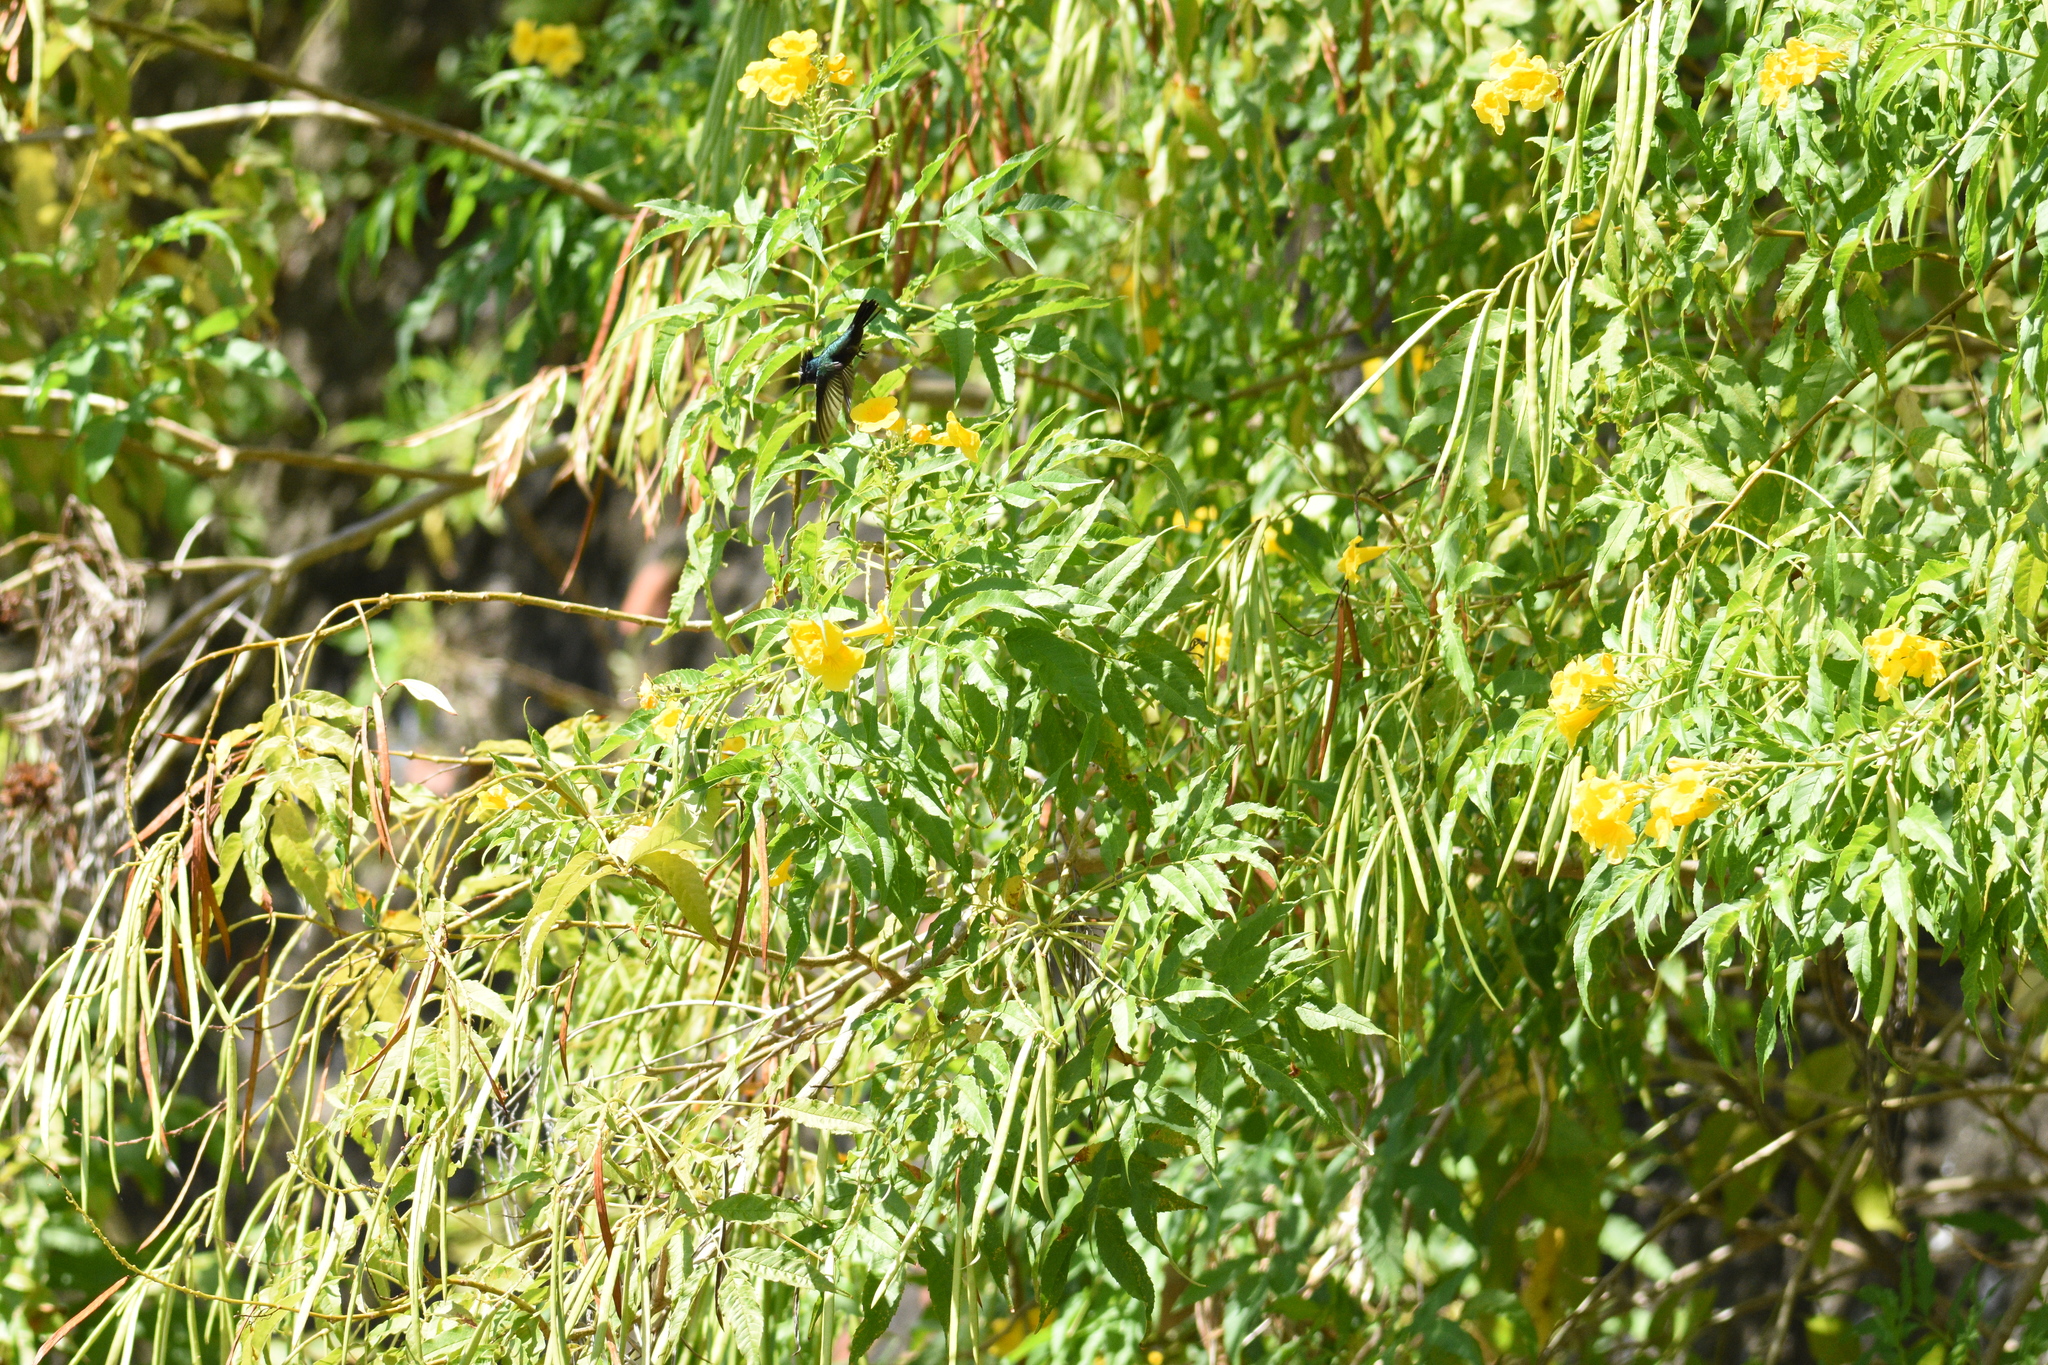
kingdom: Animalia
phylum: Chordata
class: Aves
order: Apodiformes
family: Trochilidae
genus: Orthorhyncus
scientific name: Orthorhyncus cristatus
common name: Antillean crested hummingbird
